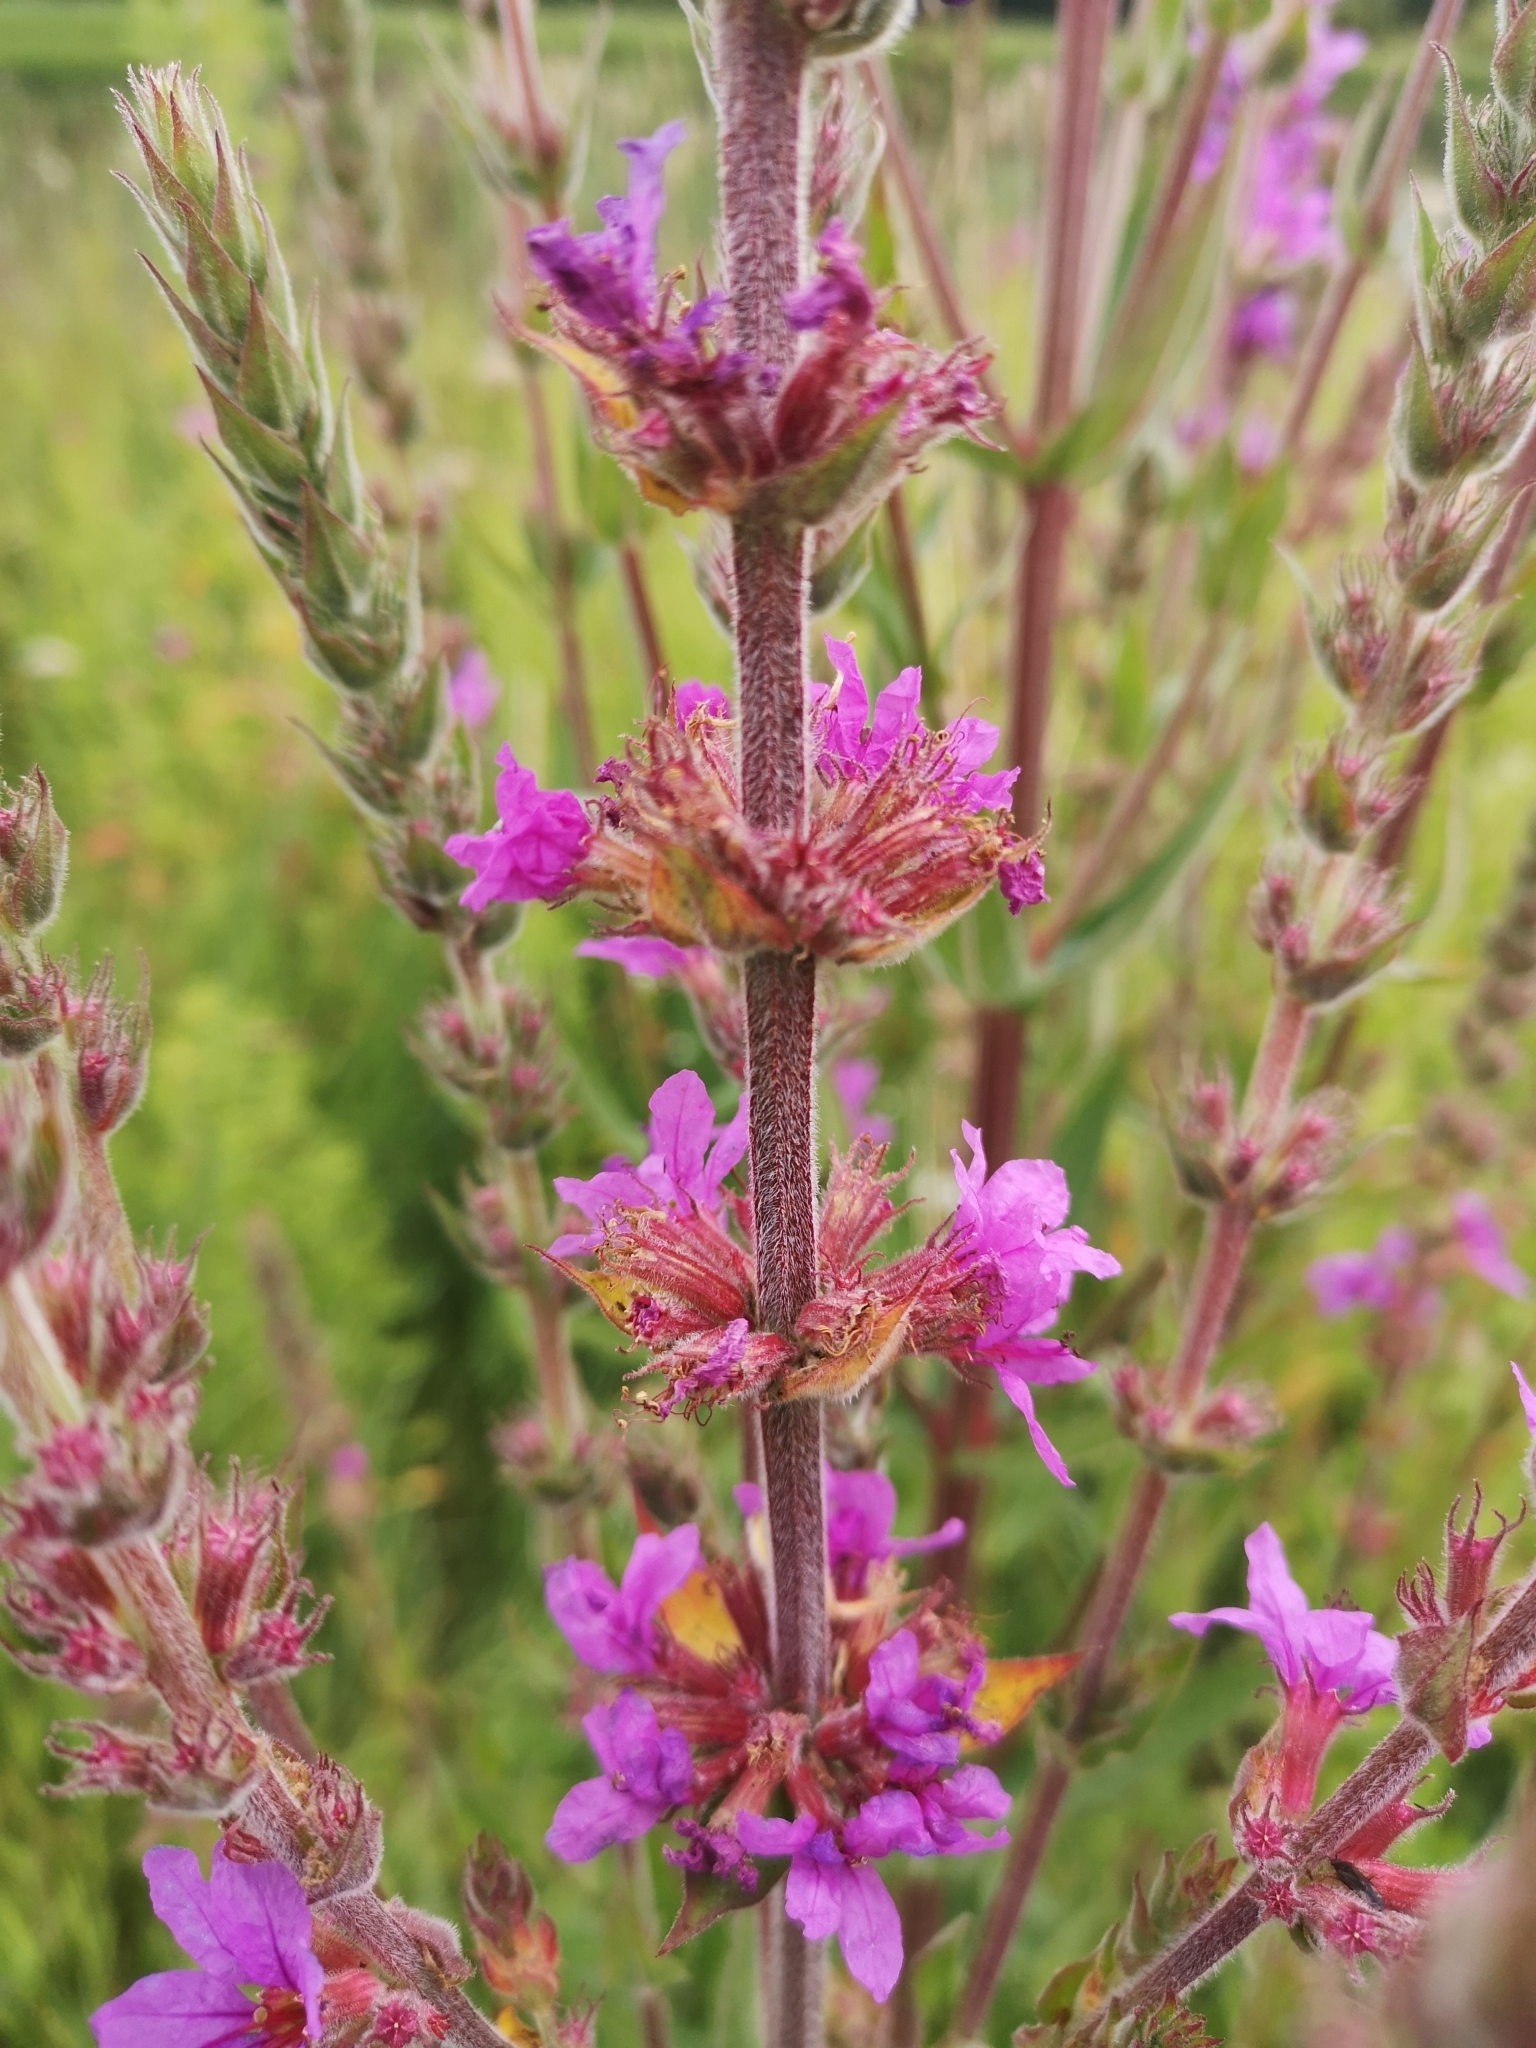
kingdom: Plantae
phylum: Tracheophyta
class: Magnoliopsida
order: Myrtales
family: Lythraceae
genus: Lythrum
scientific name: Lythrum salicaria
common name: Purple loosestrife
